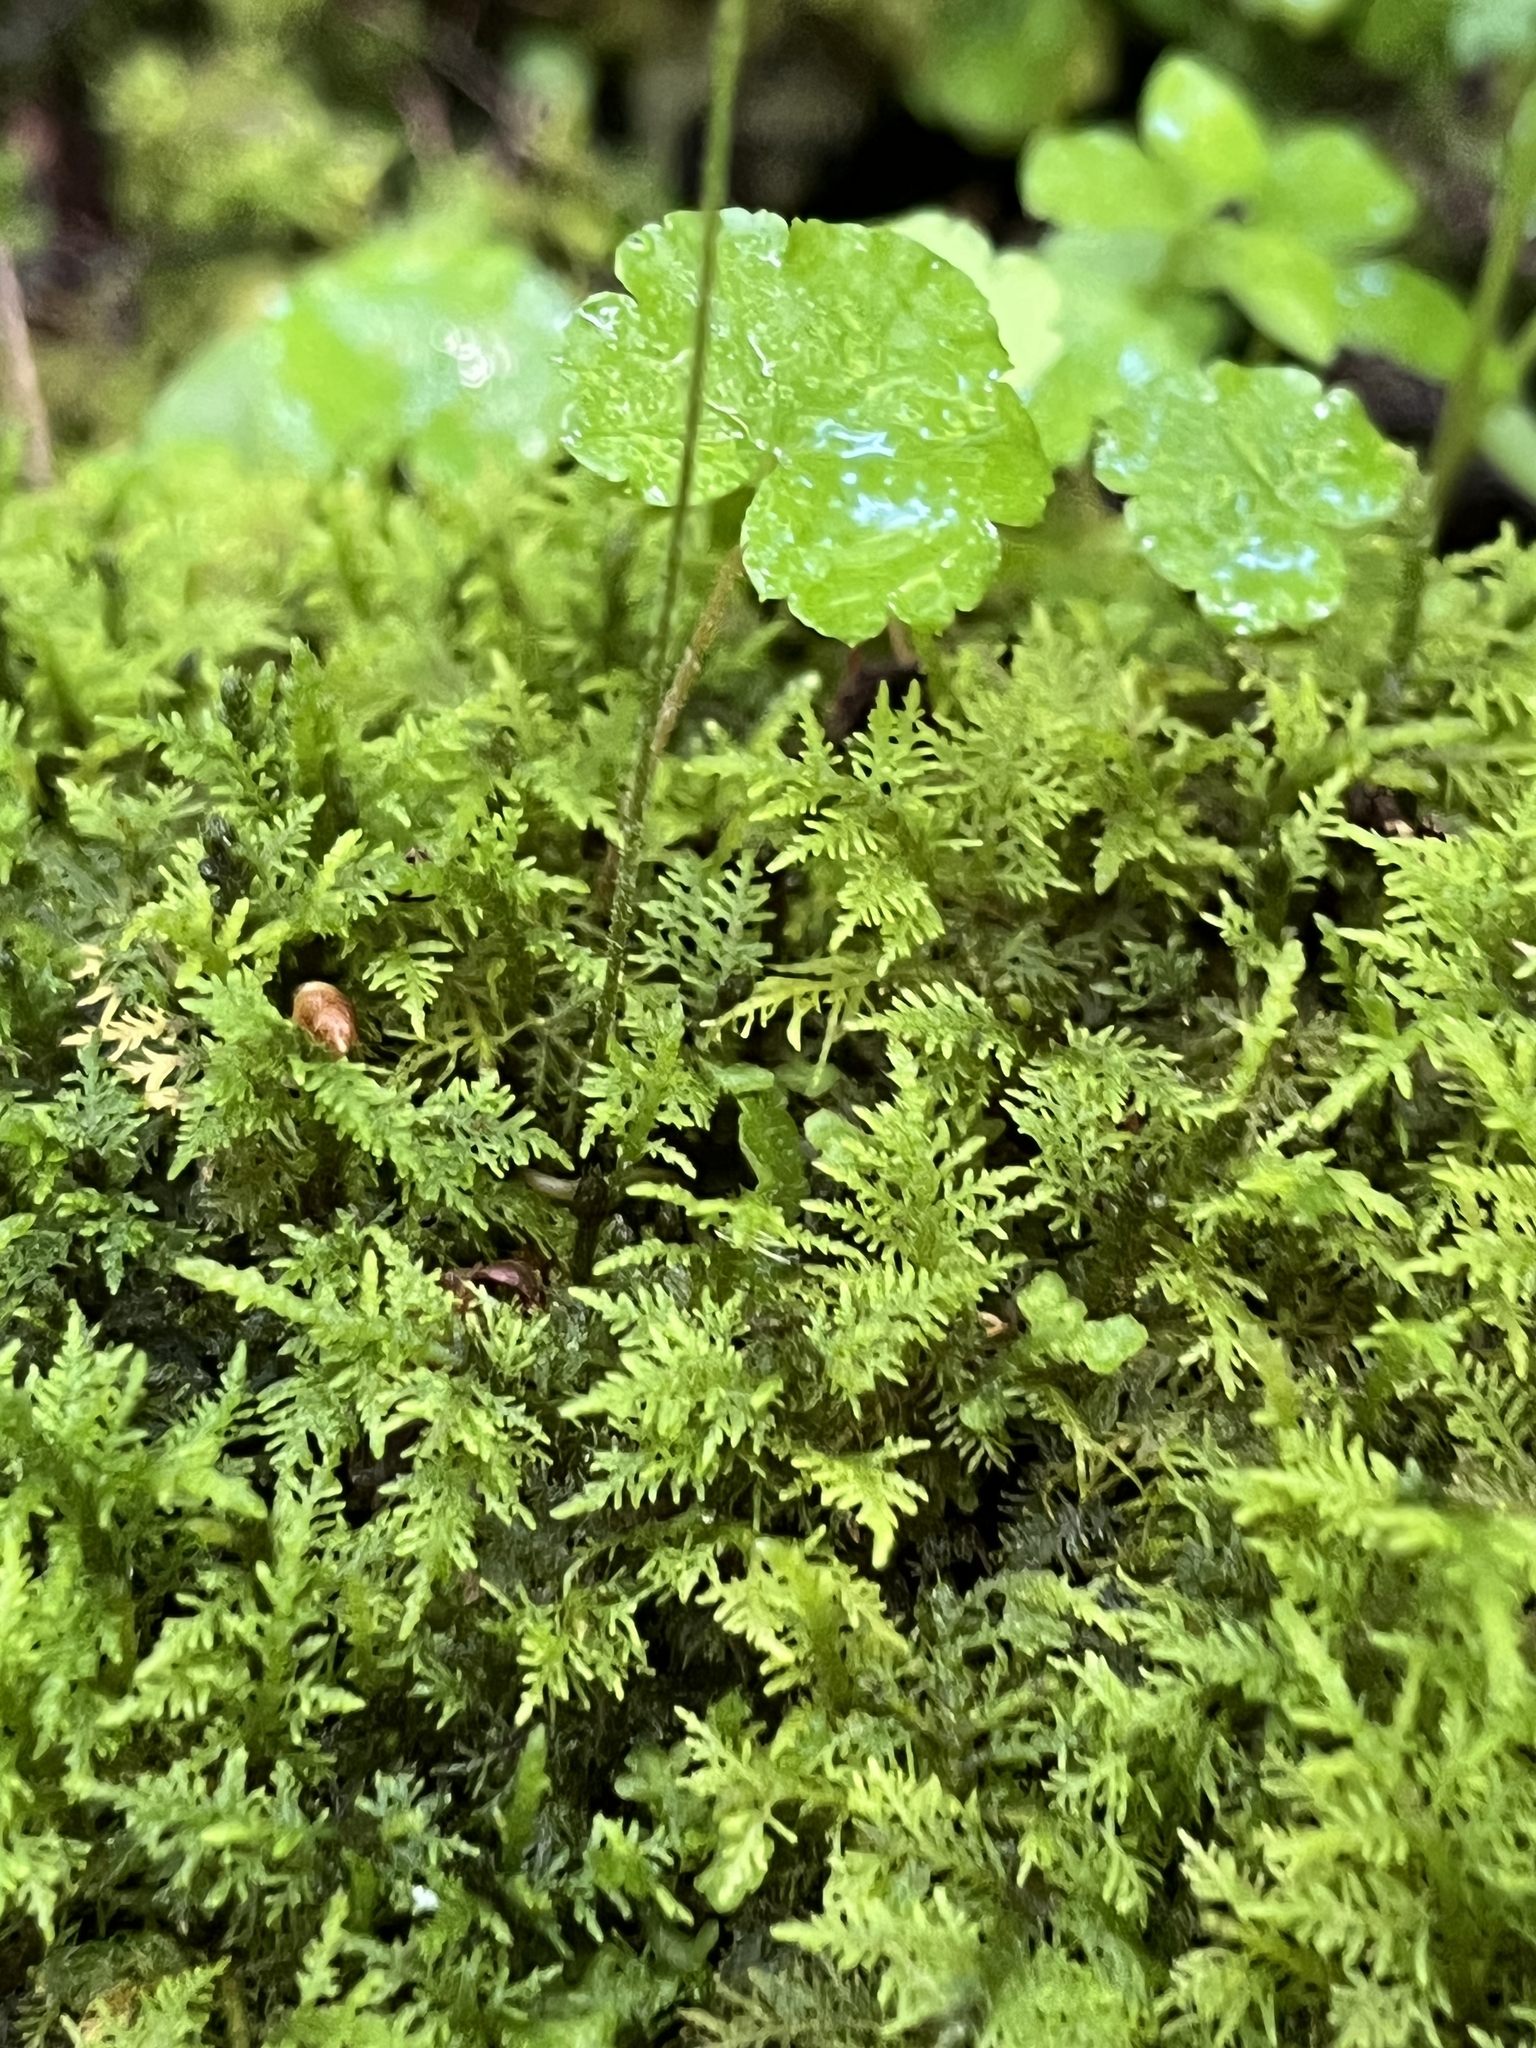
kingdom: Plantae
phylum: Bryophyta
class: Bryopsida
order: Hypnales
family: Thuidiaceae
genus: Thuidium
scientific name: Thuidium delicatulum
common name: Delicate fern moss
